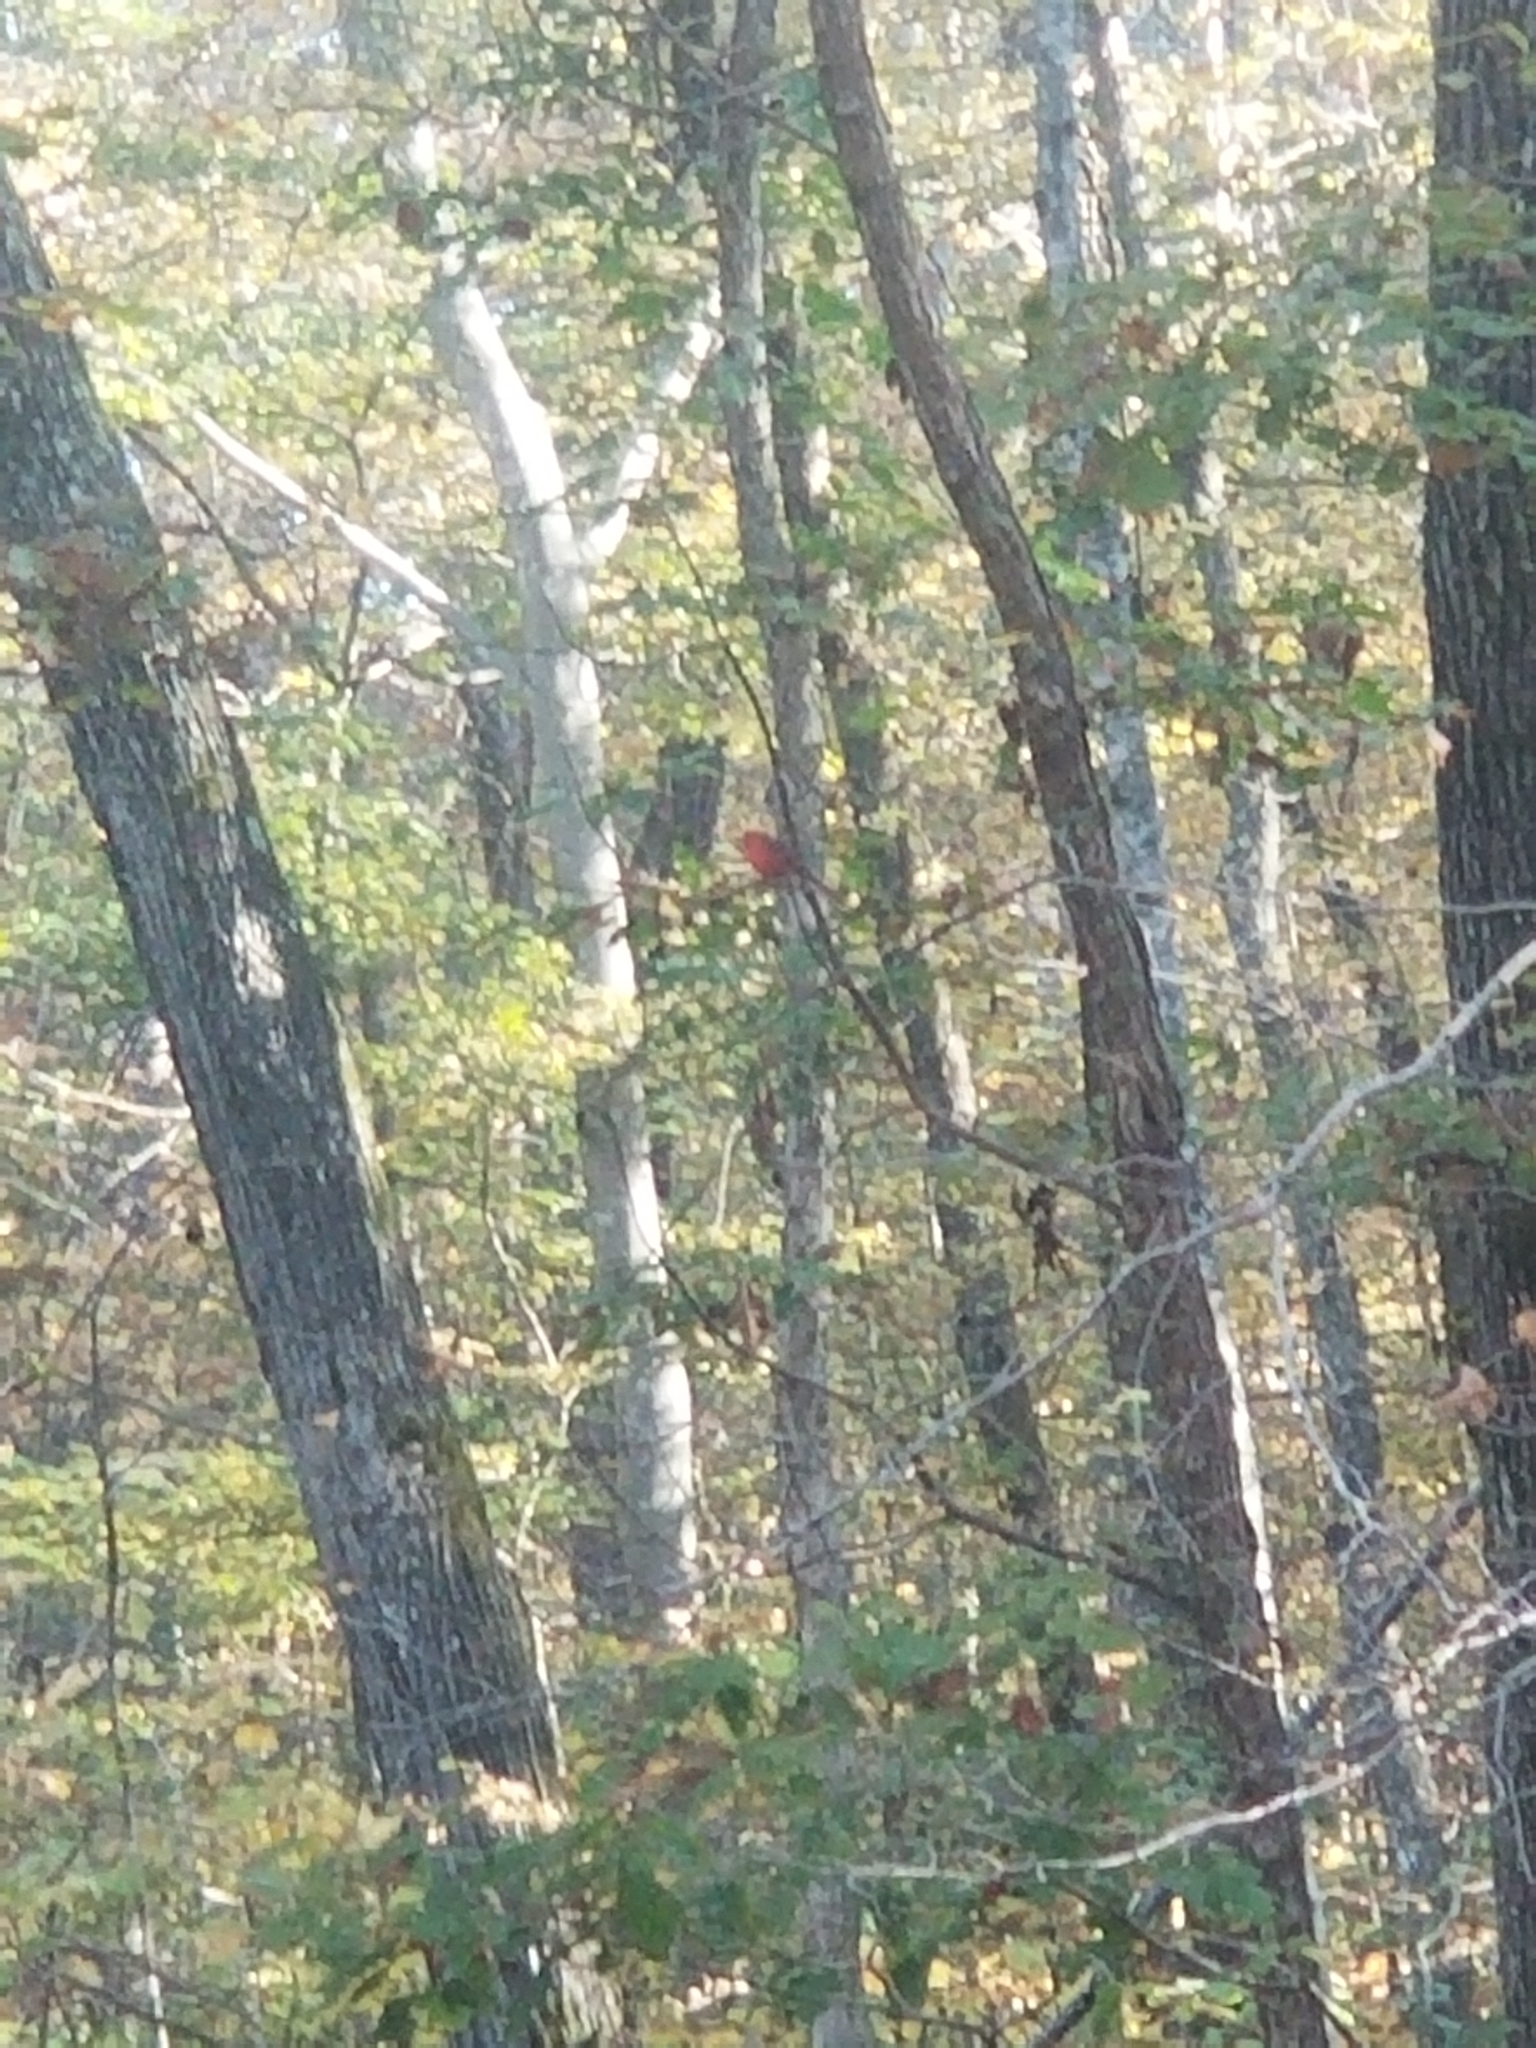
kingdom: Animalia
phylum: Chordata
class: Aves
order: Passeriformes
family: Cardinalidae
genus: Cardinalis
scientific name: Cardinalis cardinalis
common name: Northern cardinal
